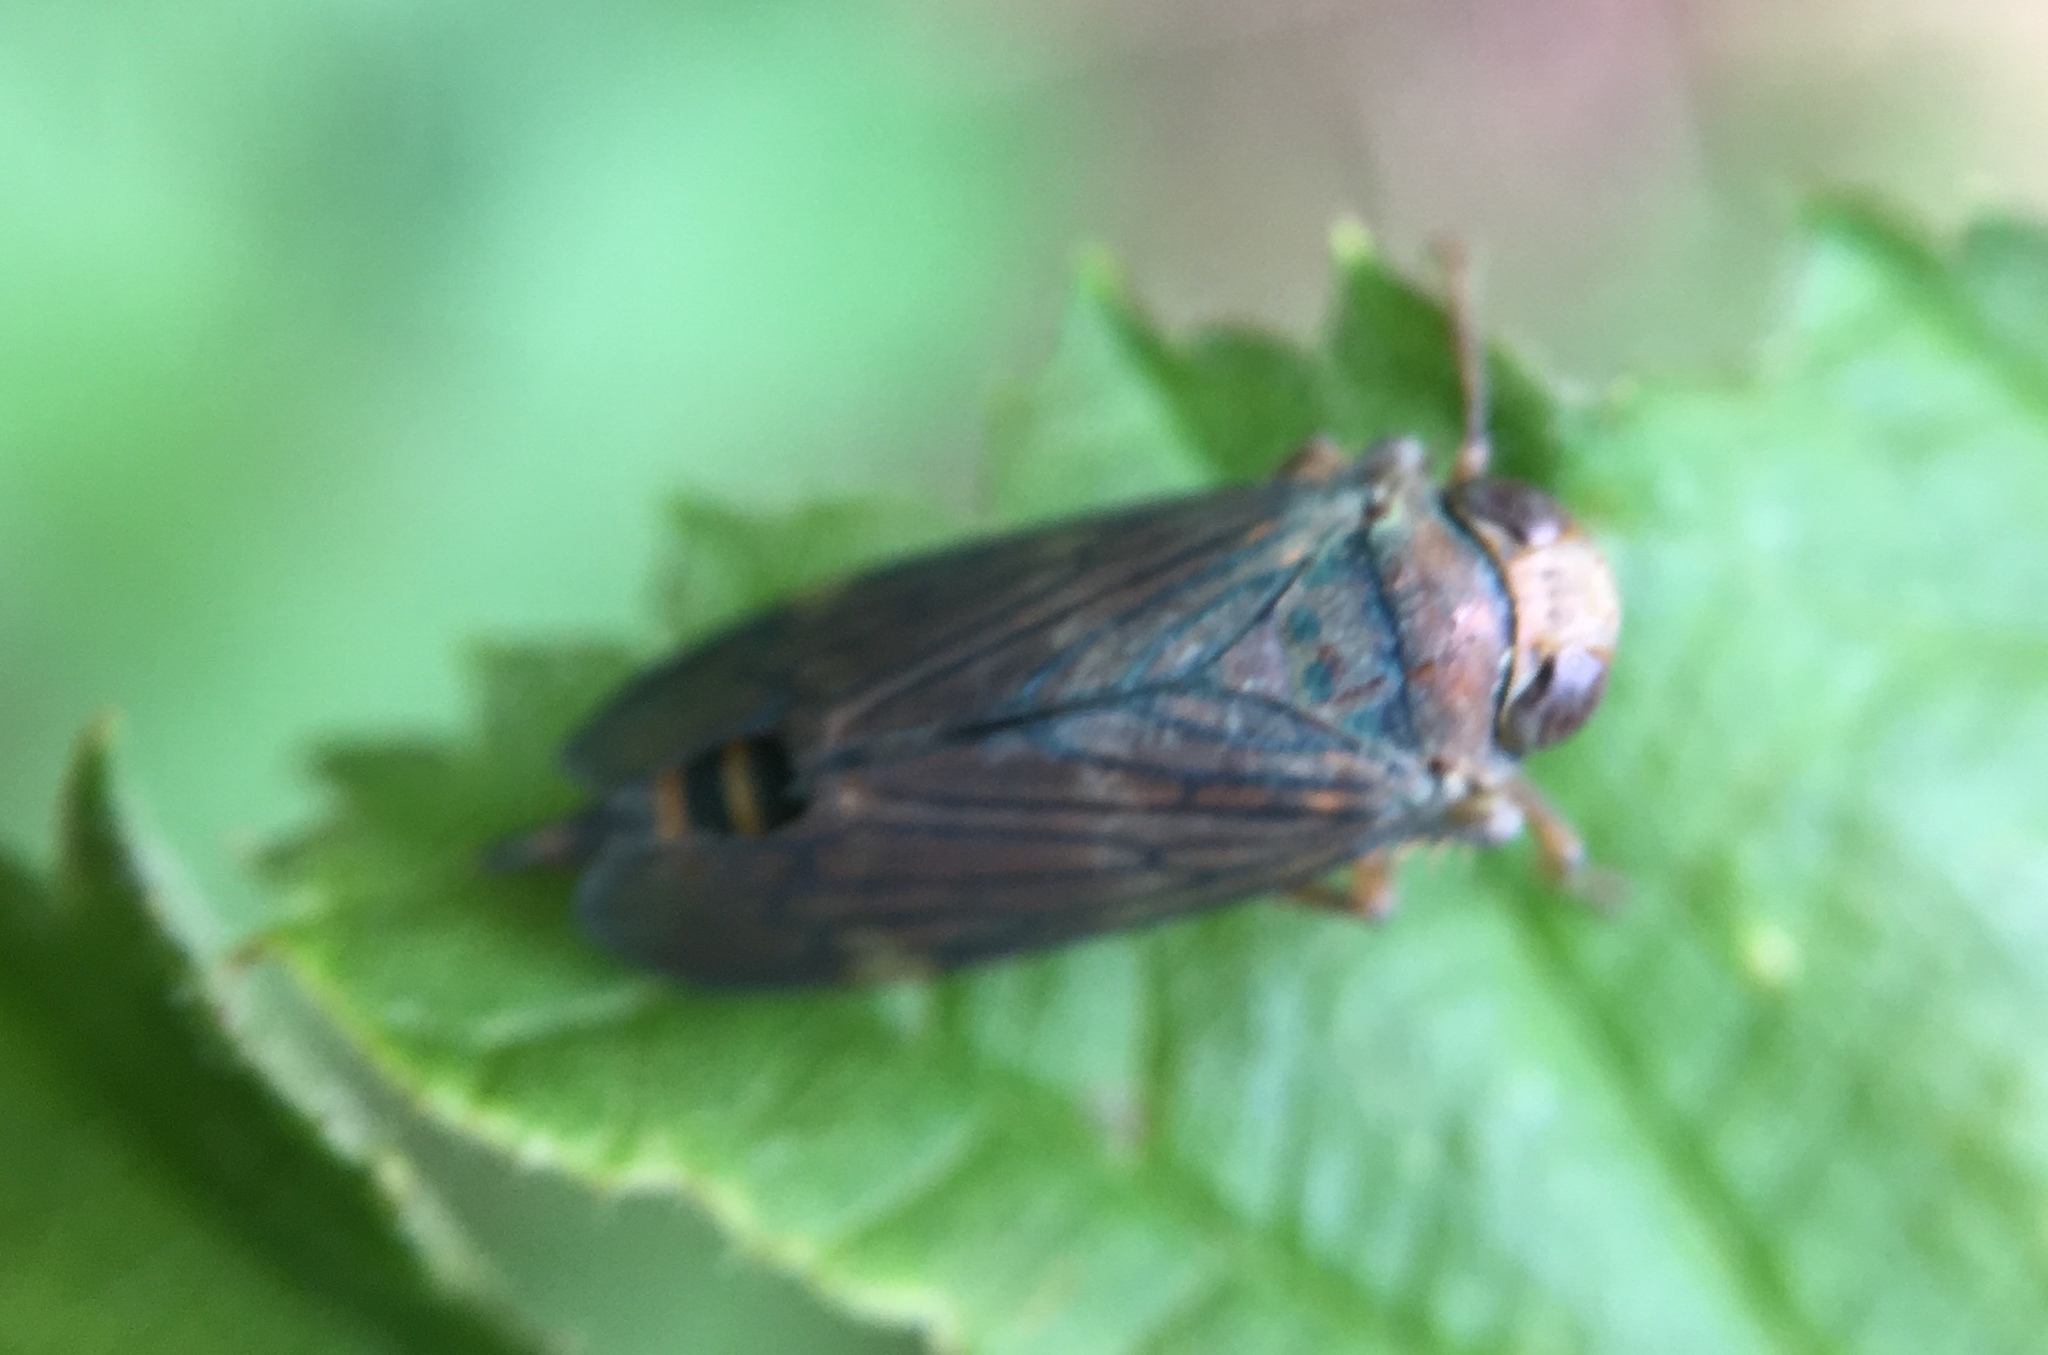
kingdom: Animalia
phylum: Arthropoda
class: Insecta
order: Hemiptera
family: Cicadellidae
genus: Jikradia
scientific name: Jikradia olitoria
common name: Coppery leafhopper
